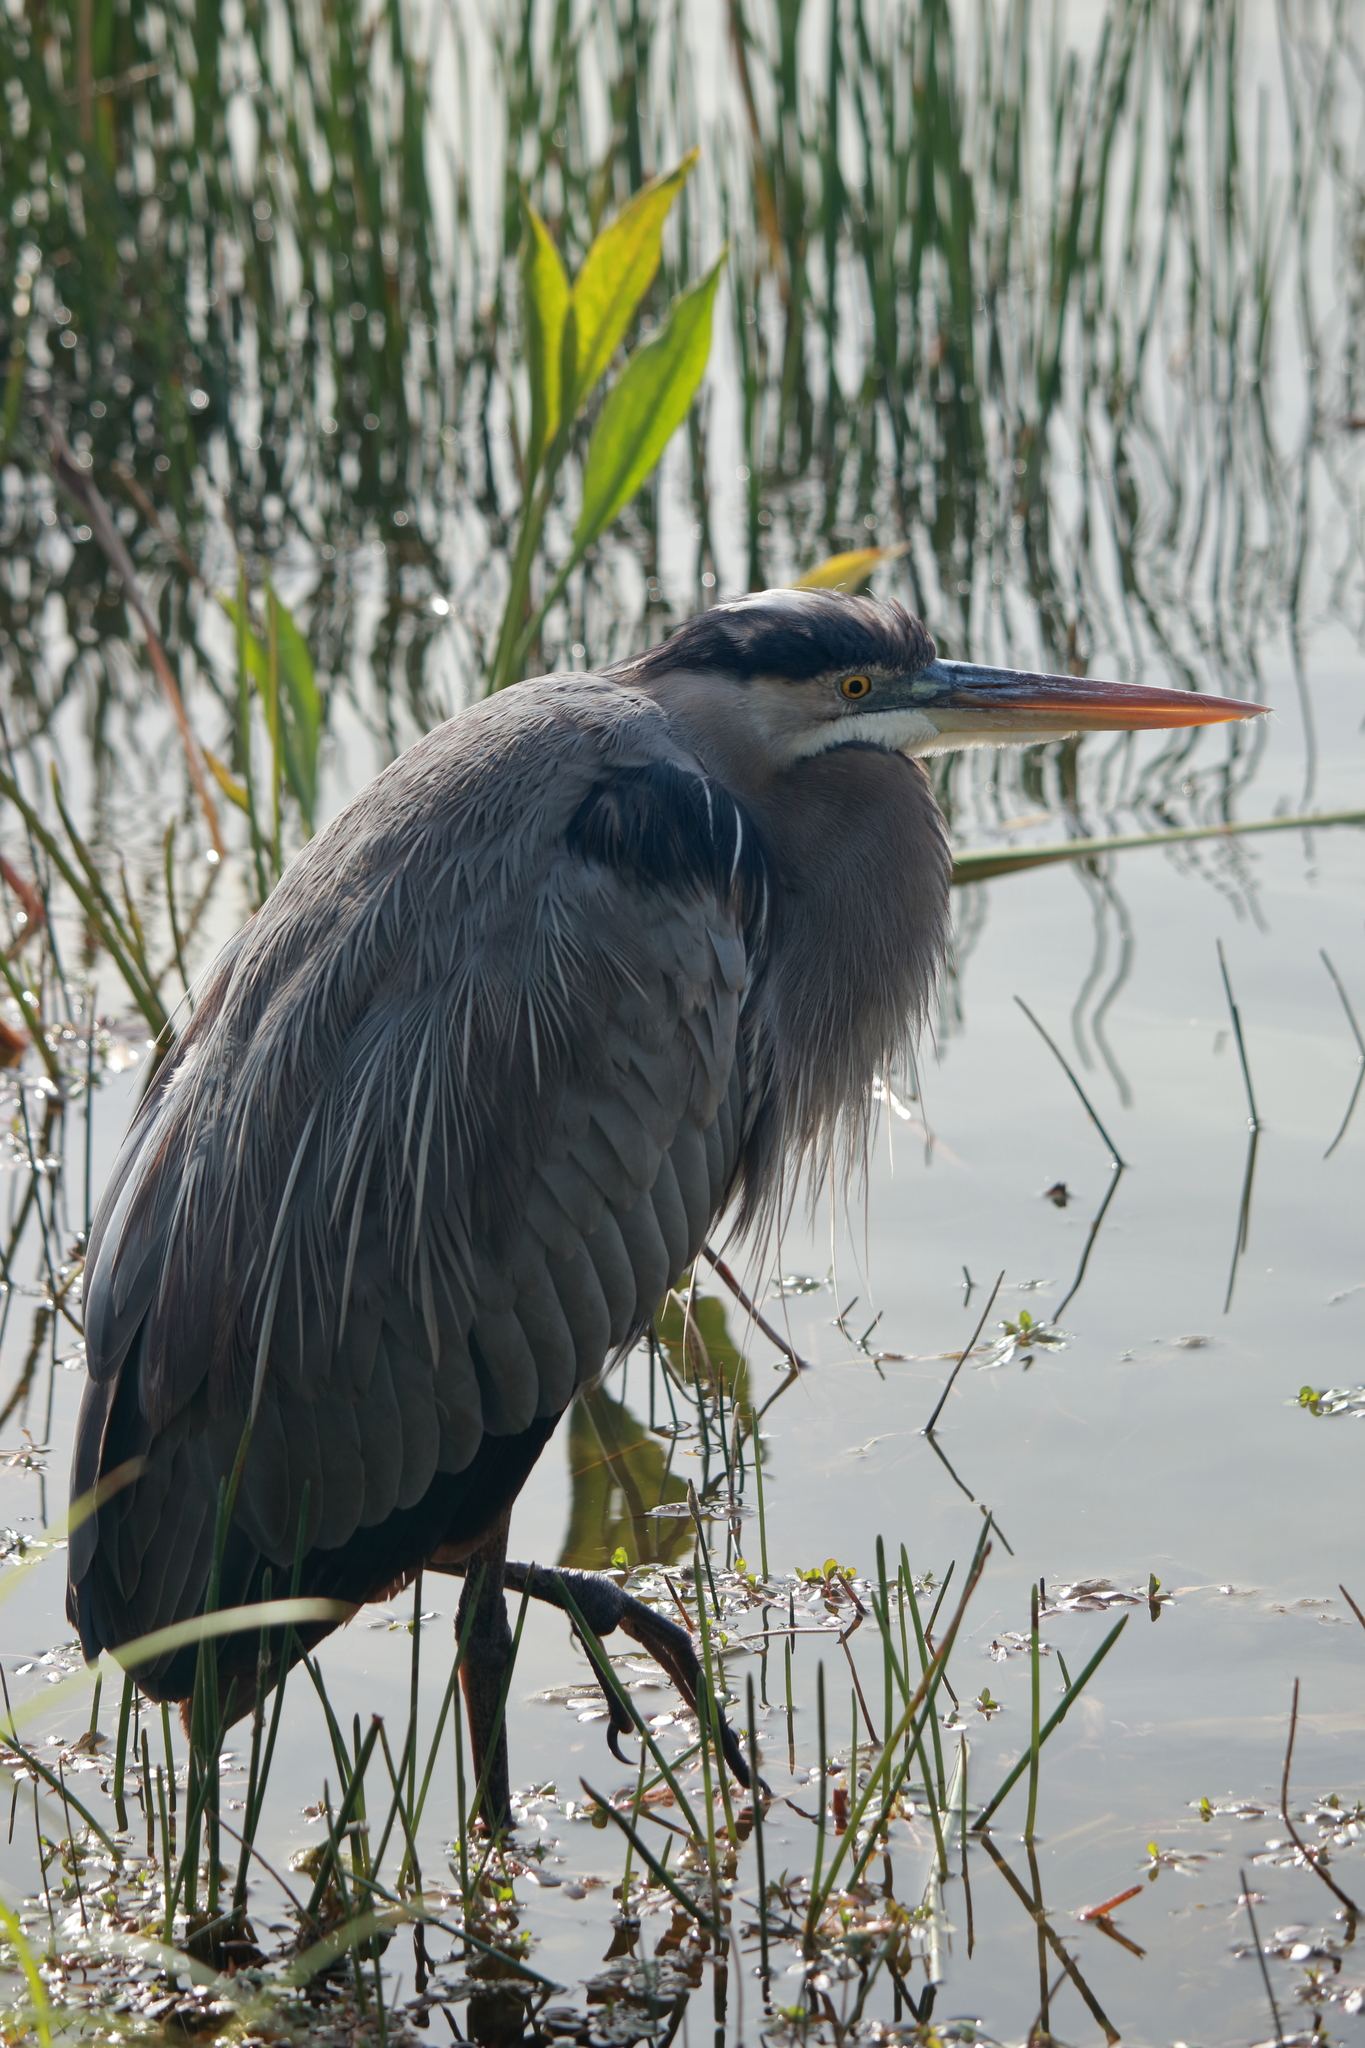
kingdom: Animalia
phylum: Chordata
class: Aves
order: Pelecaniformes
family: Ardeidae
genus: Ardea
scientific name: Ardea herodias
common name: Great blue heron
